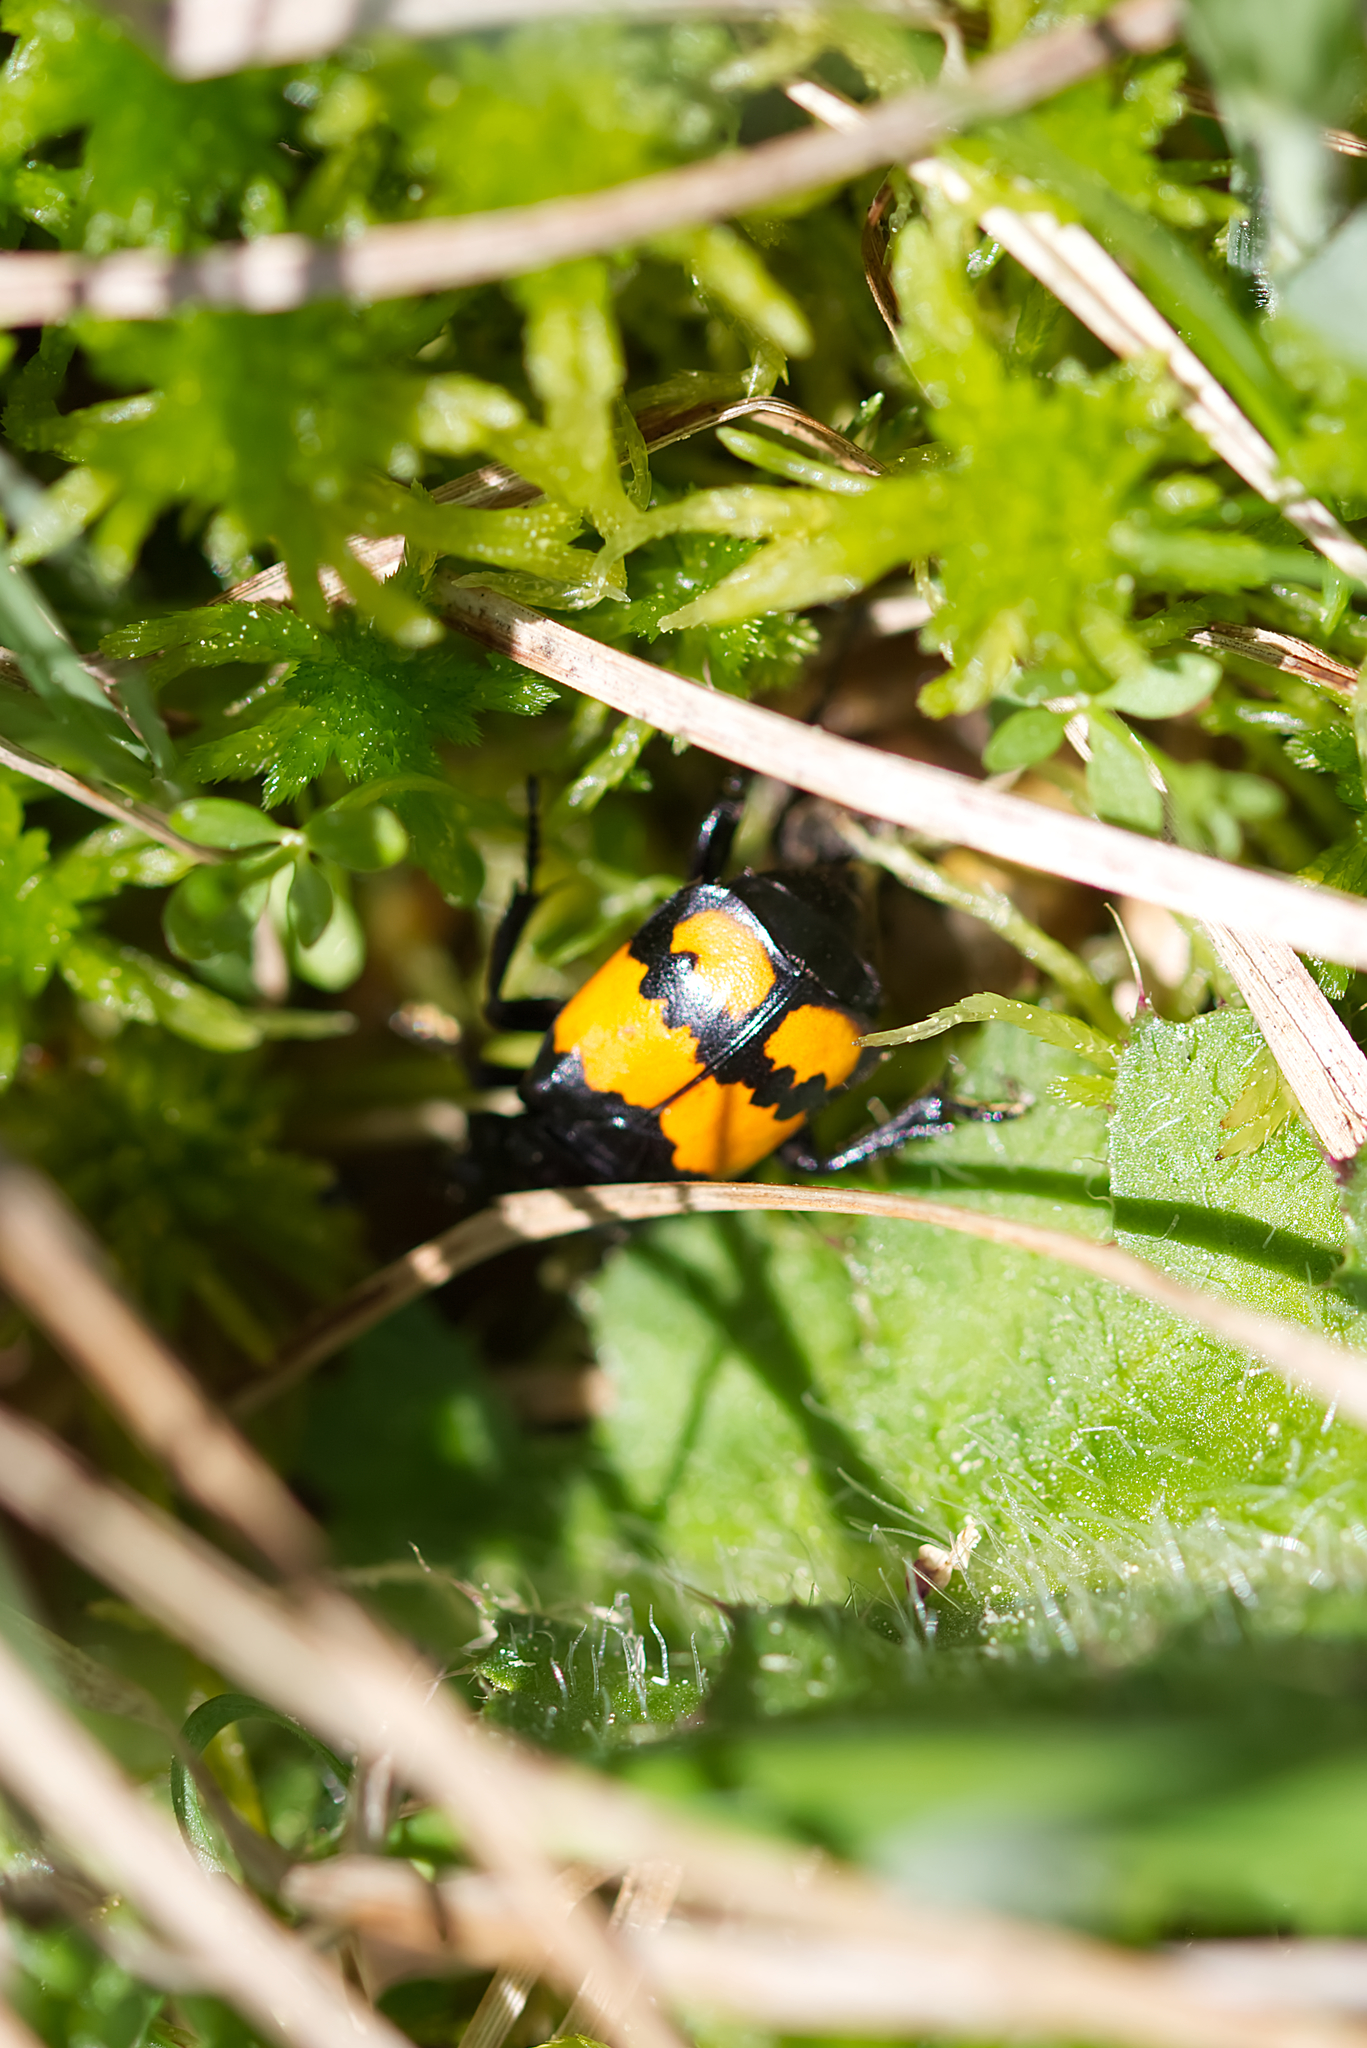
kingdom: Animalia
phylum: Arthropoda
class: Insecta
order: Coleoptera
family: Staphylinidae
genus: Nicrophorus
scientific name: Nicrophorus vespilloides
